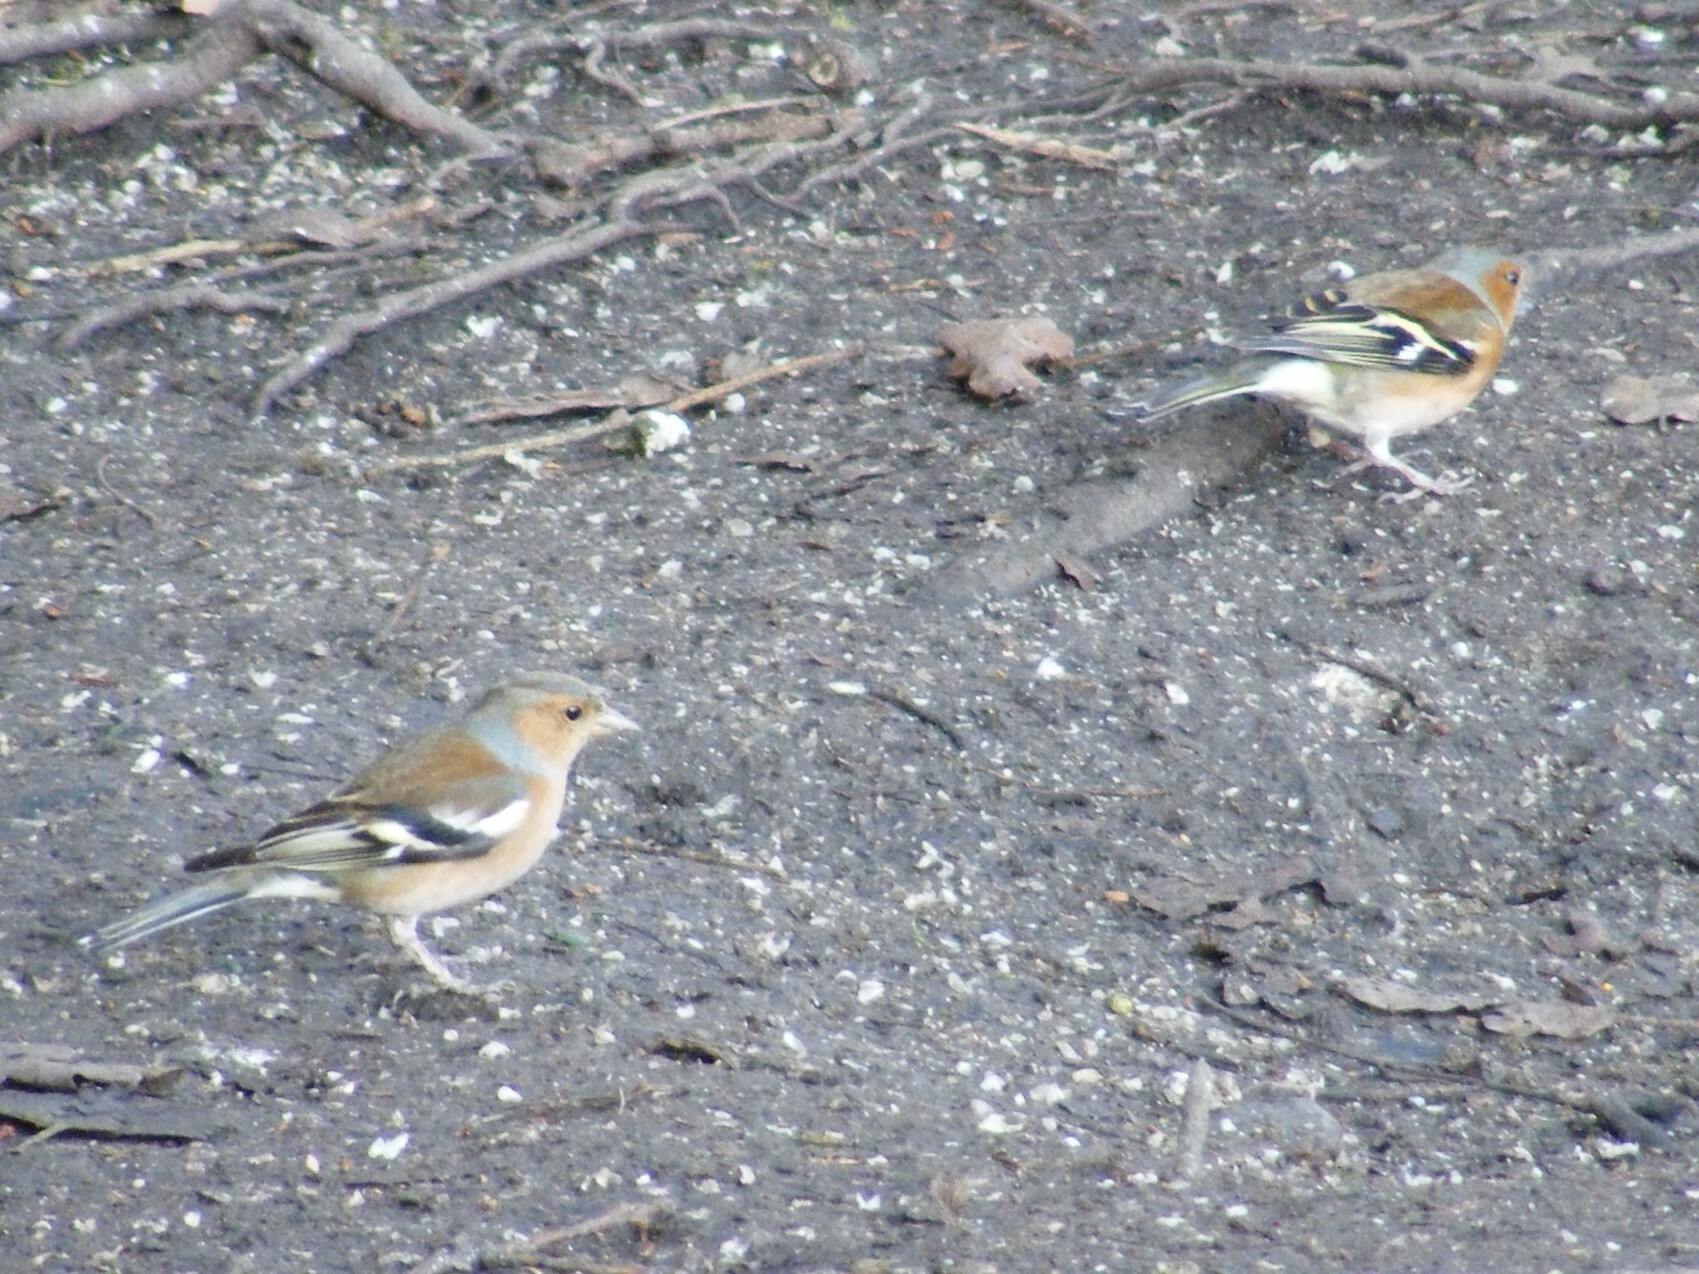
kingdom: Animalia
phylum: Chordata
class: Aves
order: Passeriformes
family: Fringillidae
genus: Fringilla
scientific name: Fringilla coelebs
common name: Common chaffinch
